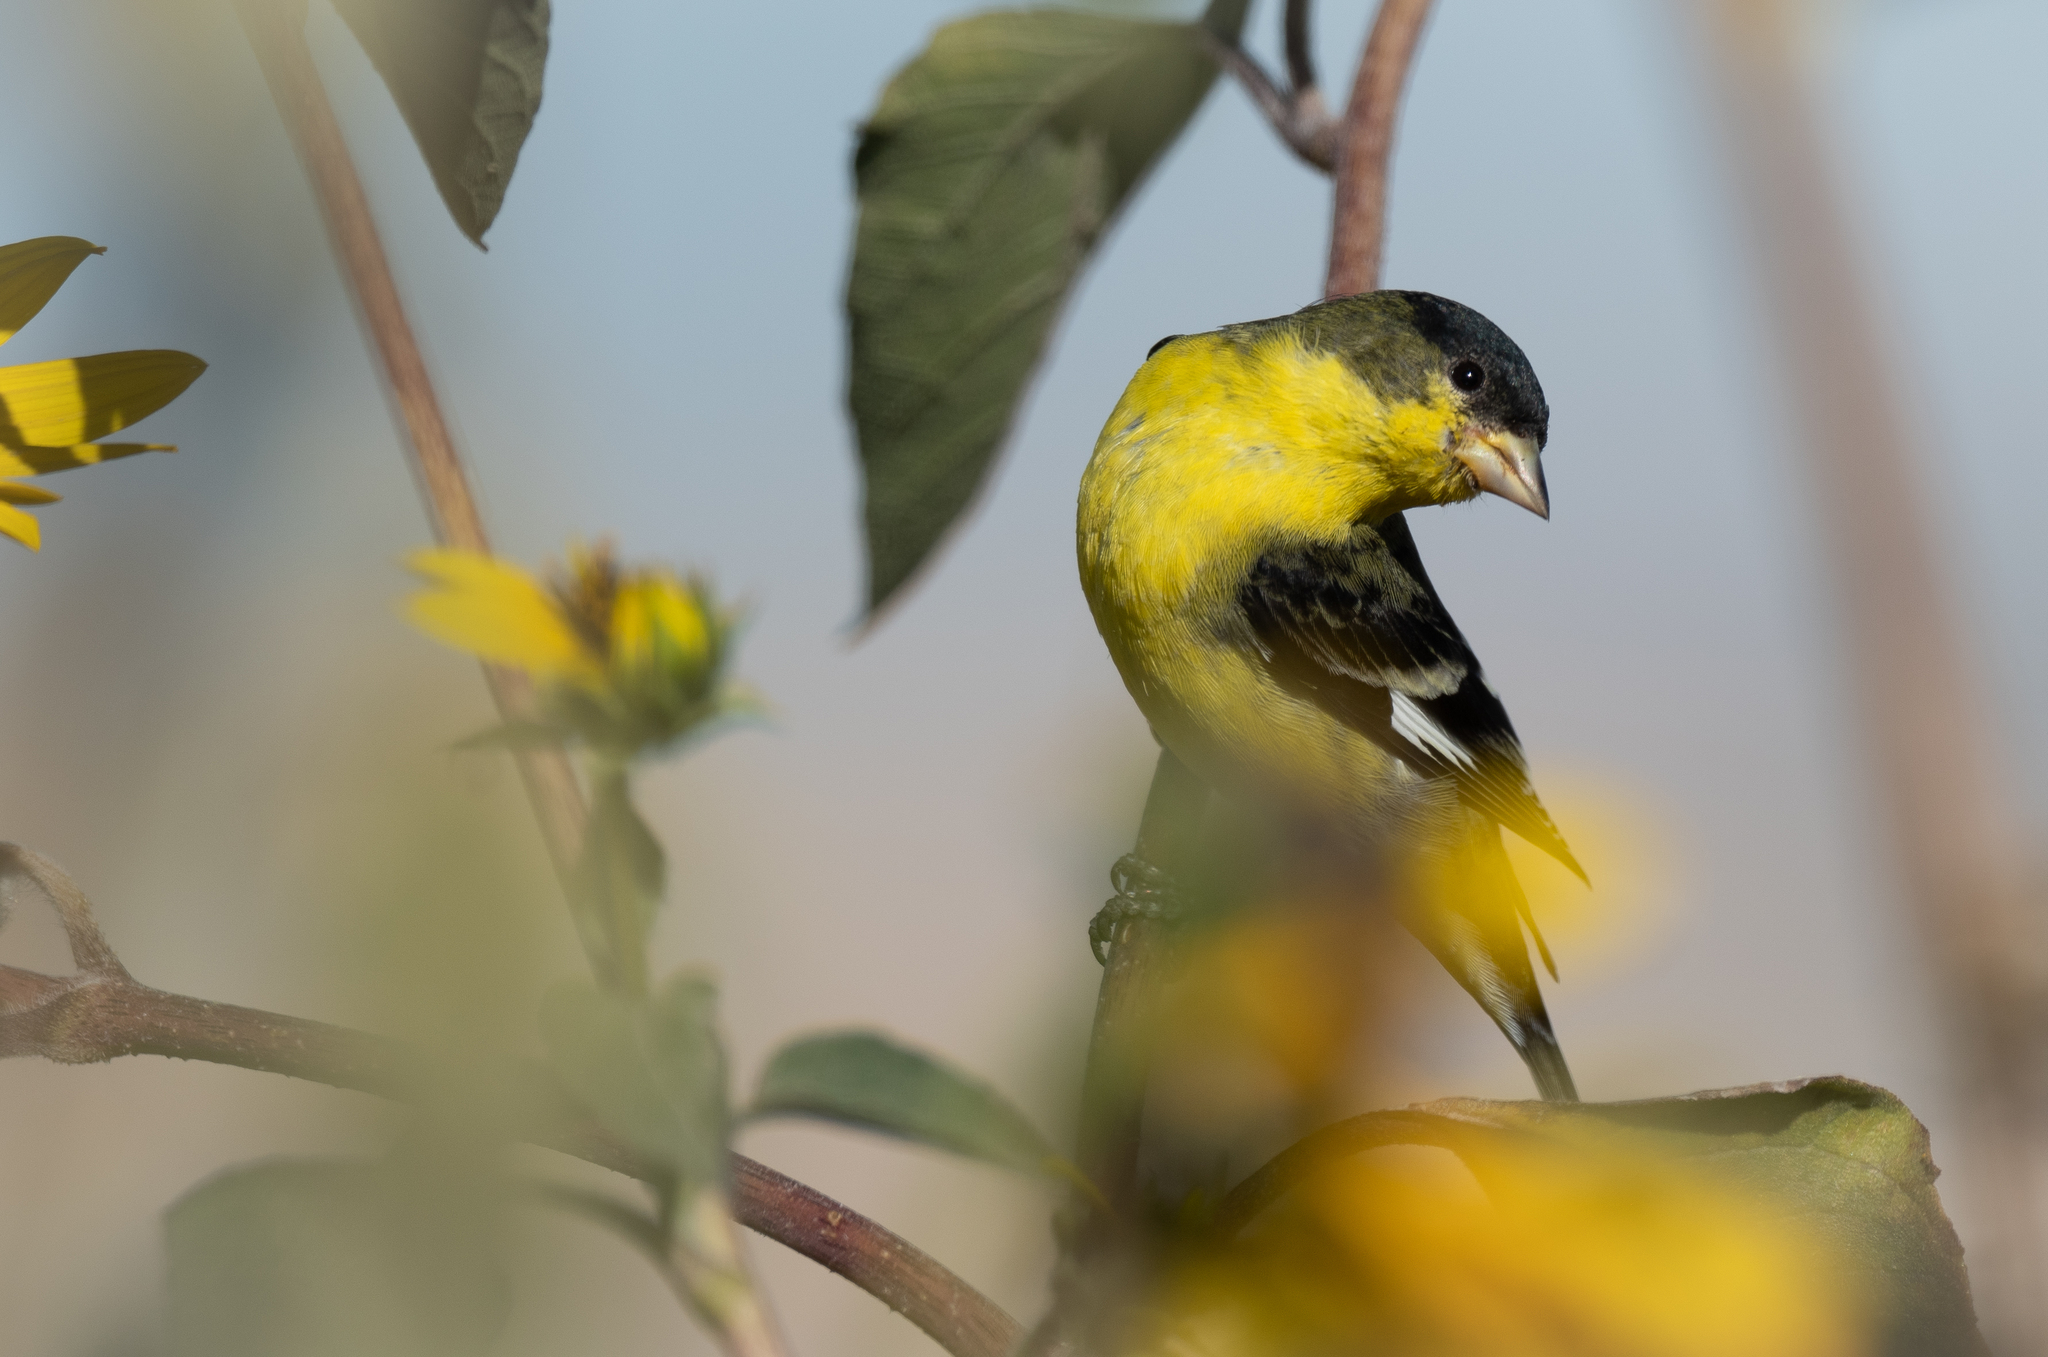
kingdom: Animalia
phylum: Chordata
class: Aves
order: Passeriformes
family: Fringillidae
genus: Spinus
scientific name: Spinus psaltria
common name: Lesser goldfinch
